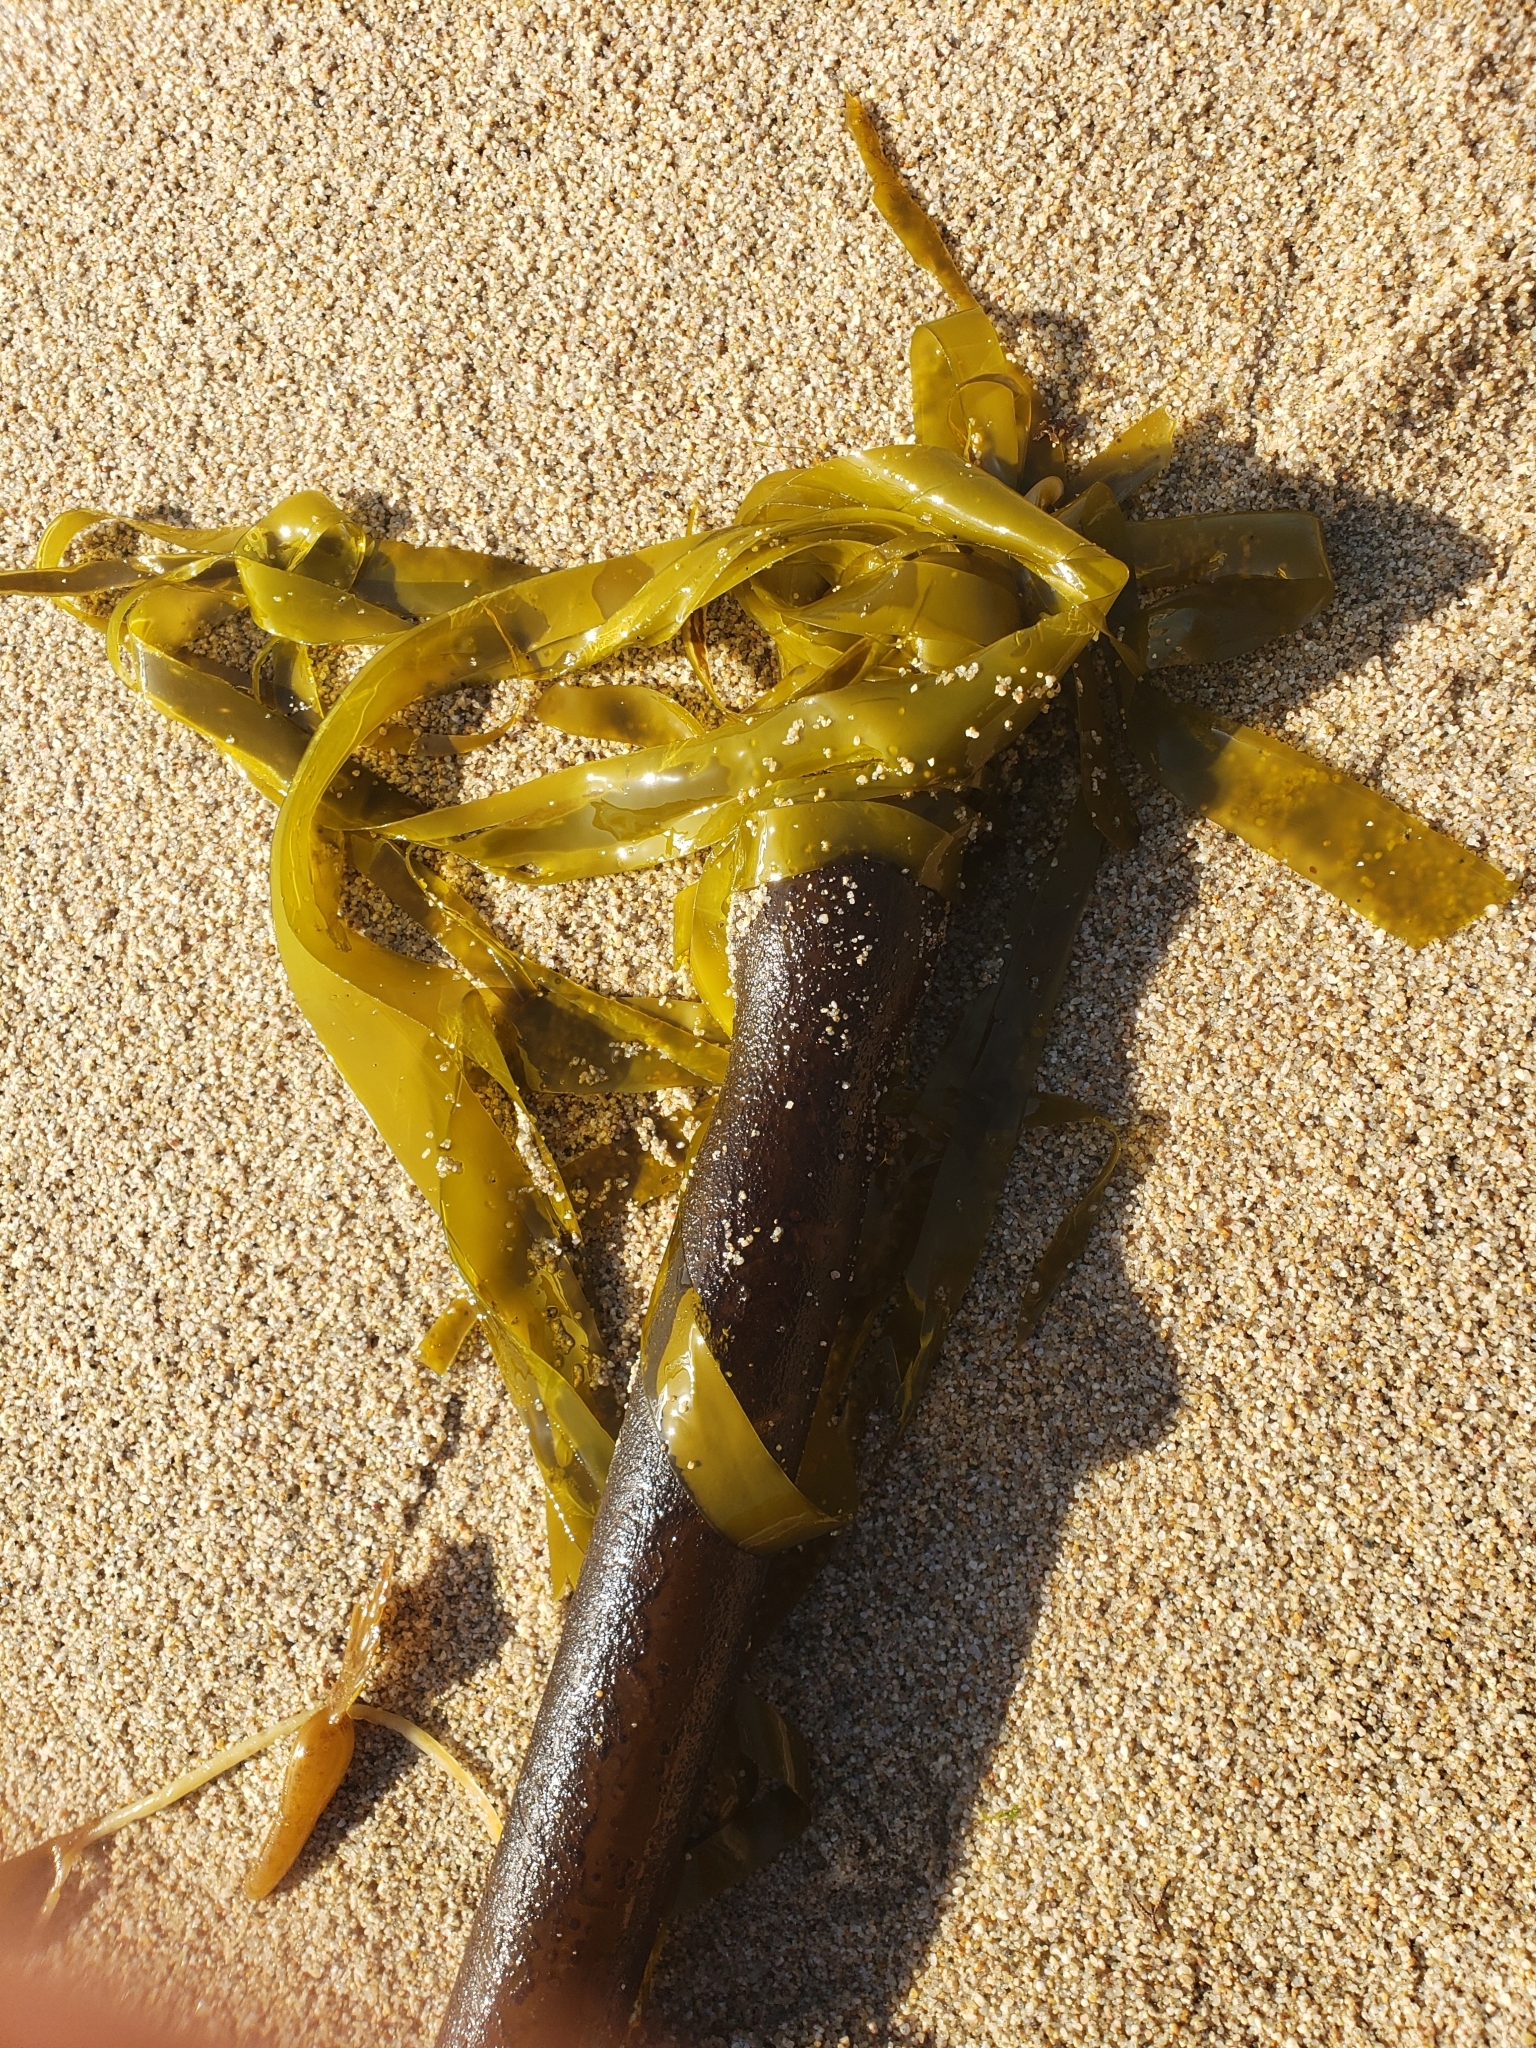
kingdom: Chromista
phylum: Ochrophyta
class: Phaeophyceae
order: Laminariales
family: Laminariaceae
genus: Nereocystis
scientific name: Nereocystis luetkeana
